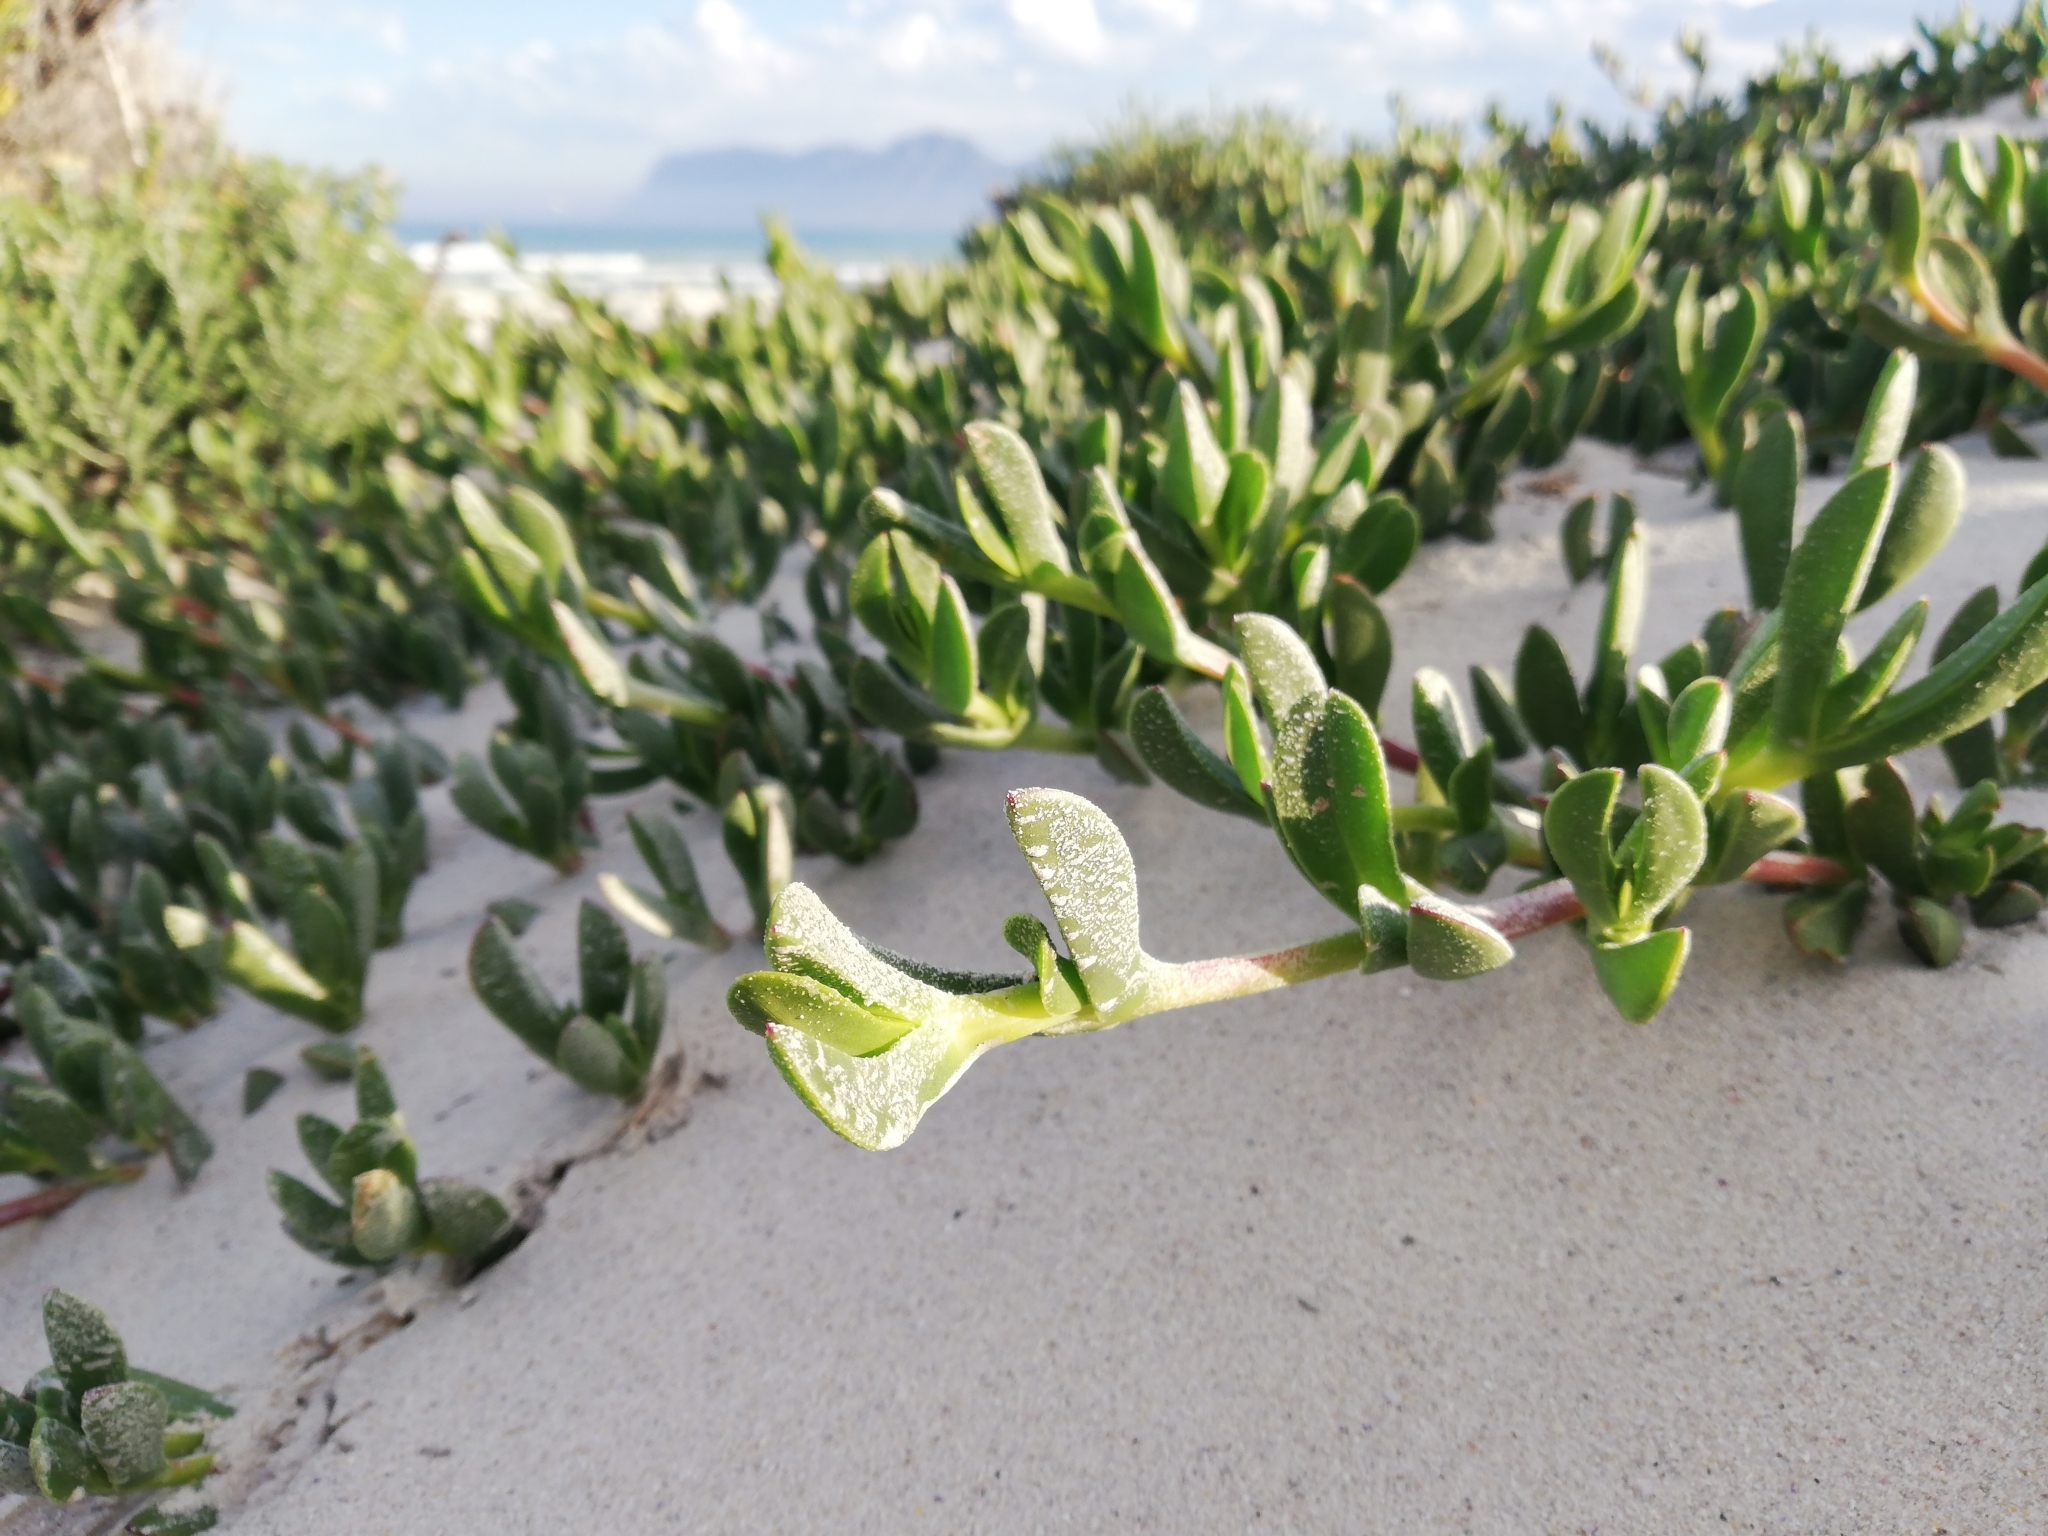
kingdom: Plantae
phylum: Tracheophyta
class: Magnoliopsida
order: Caryophyllales
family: Aizoaceae
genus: Carpobrotus
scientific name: Carpobrotus edulis
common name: Hottentot-fig
